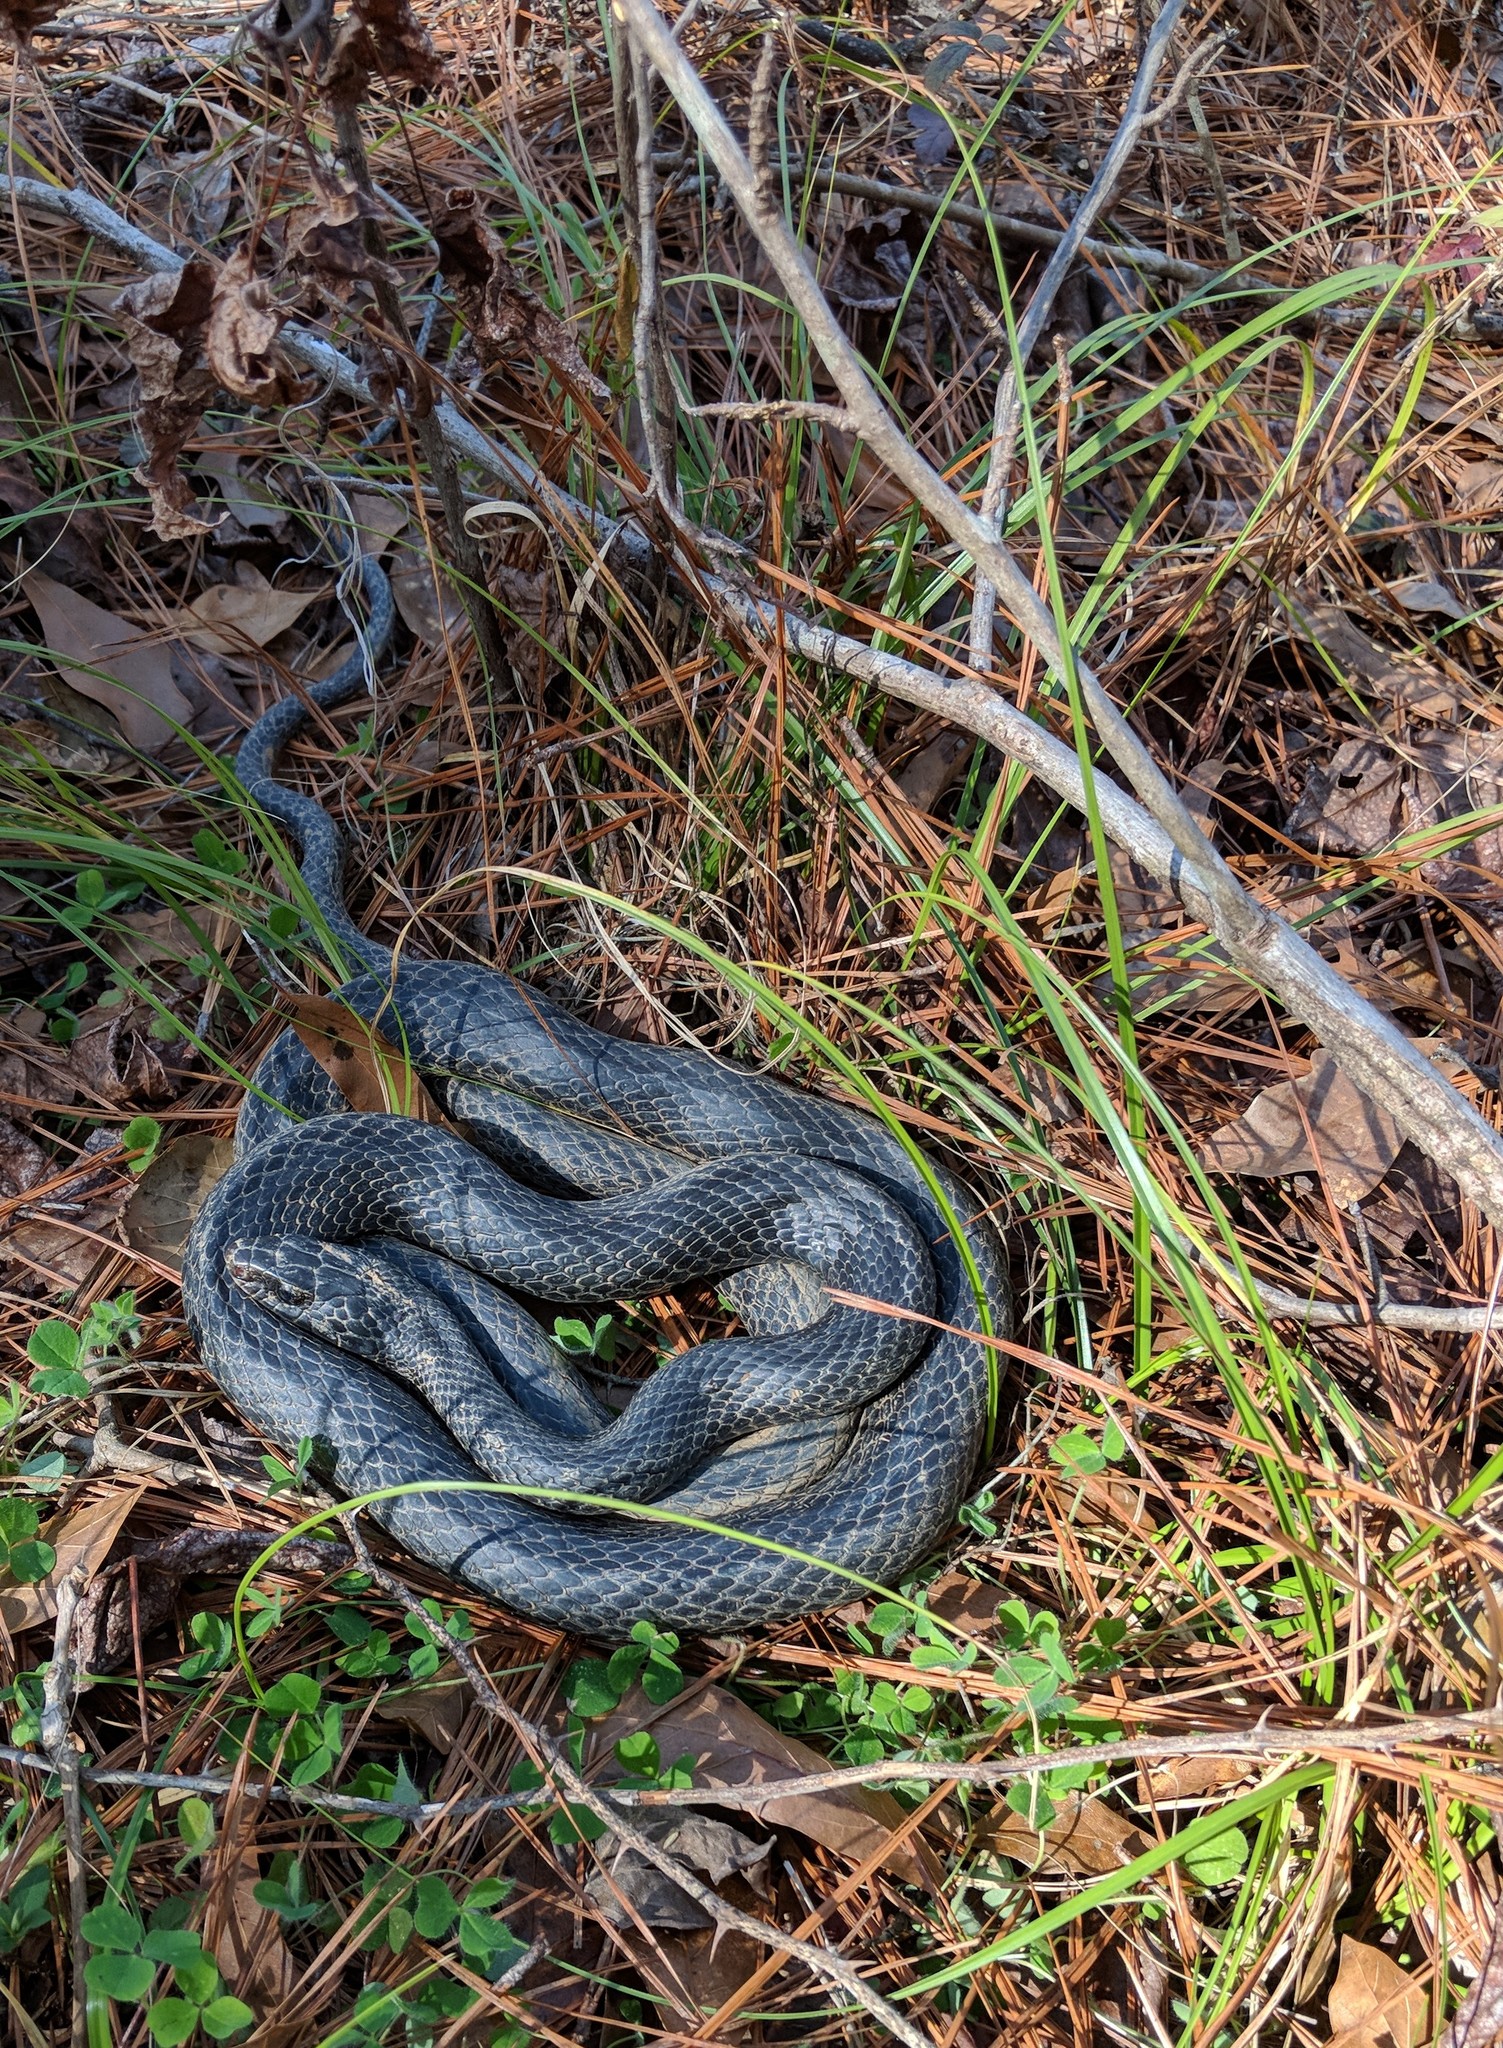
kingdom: Animalia
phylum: Chordata
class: Squamata
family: Colubridae
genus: Coluber
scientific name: Coluber constrictor
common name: Eastern racer
